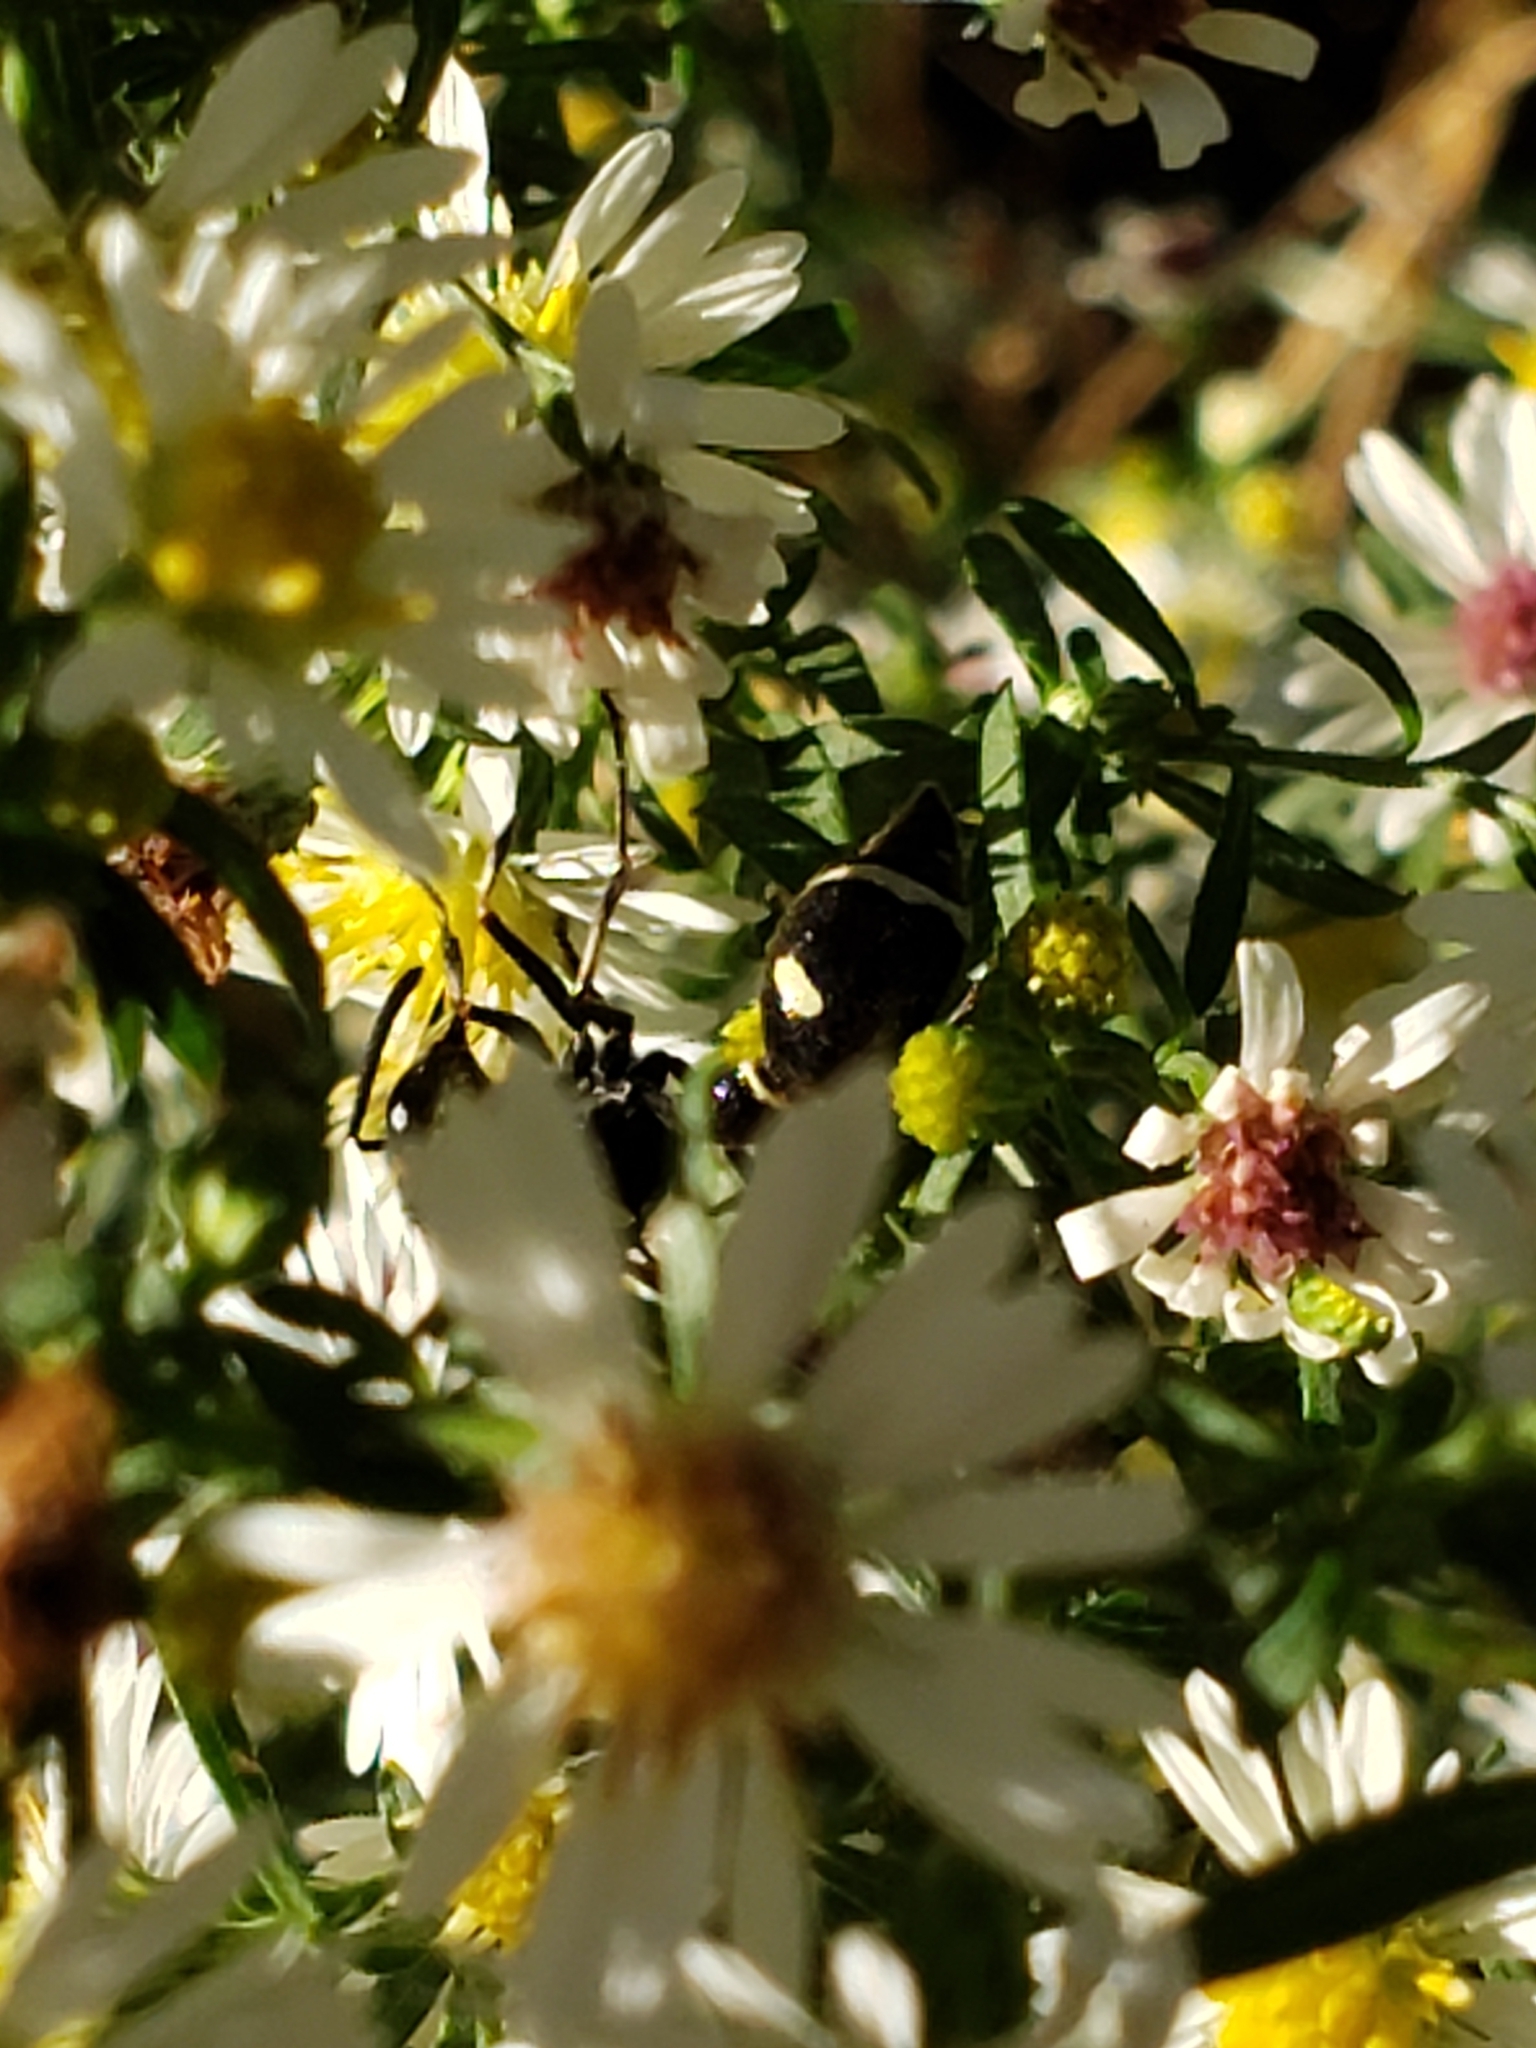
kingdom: Animalia
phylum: Arthropoda
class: Insecta
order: Hymenoptera
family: Vespidae
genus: Eumenes
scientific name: Eumenes fraternus
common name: Fraternal potter wasp
